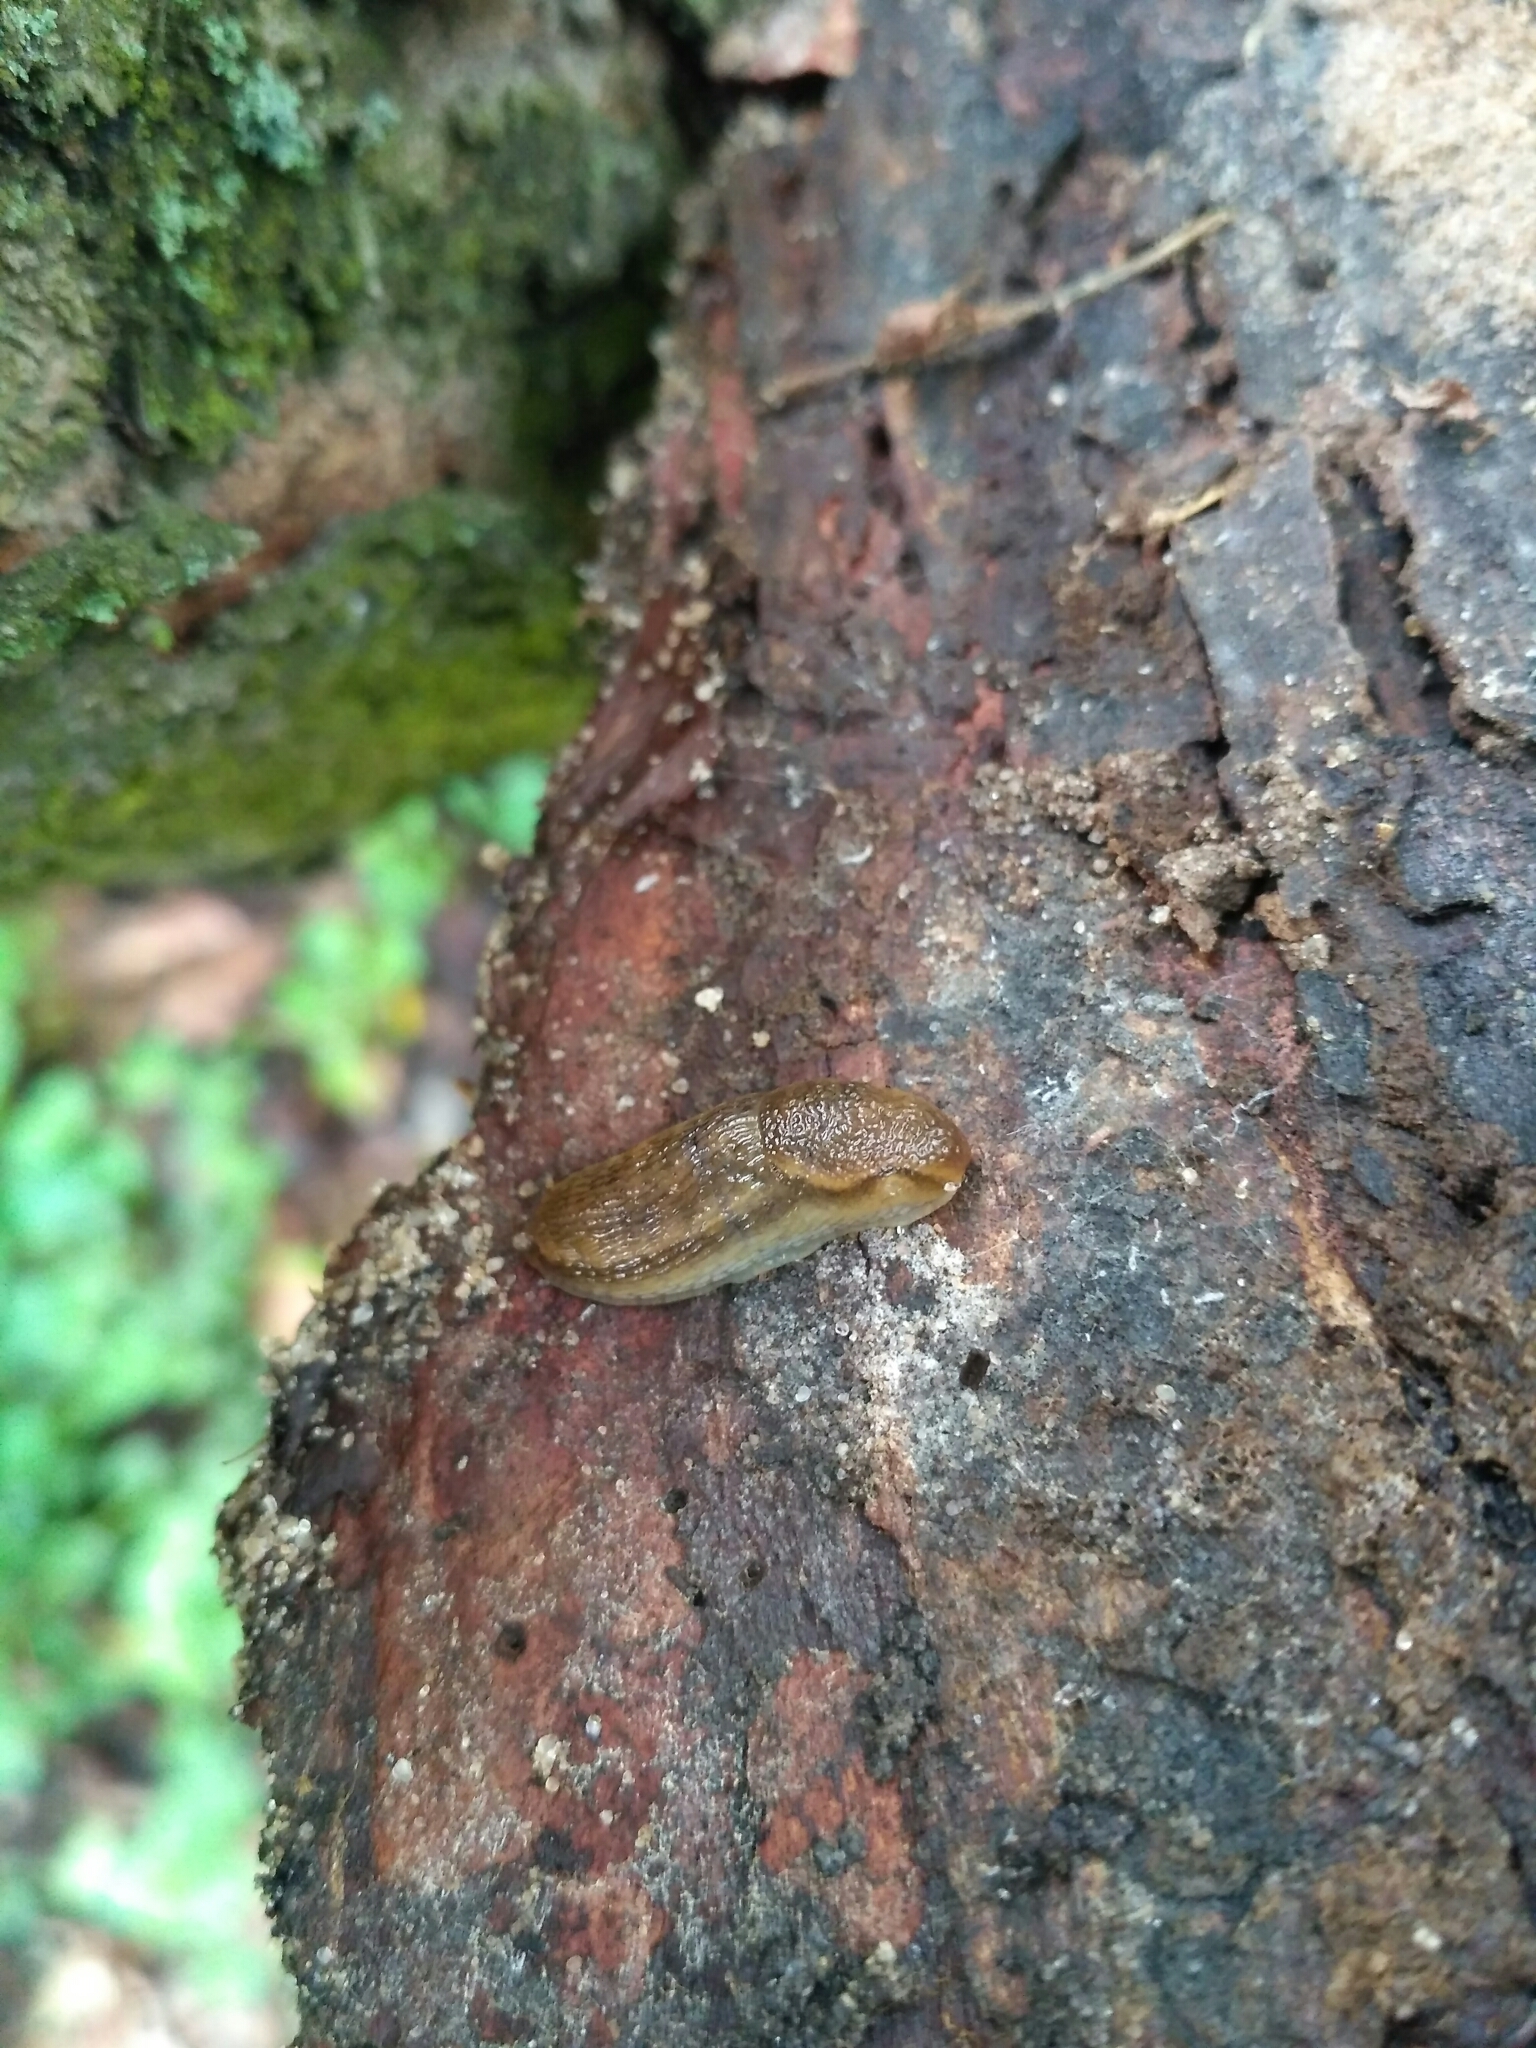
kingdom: Animalia
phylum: Mollusca
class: Gastropoda
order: Stylommatophora
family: Arionidae
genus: Arion
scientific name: Arion fuscus
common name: Northern dusky slug
